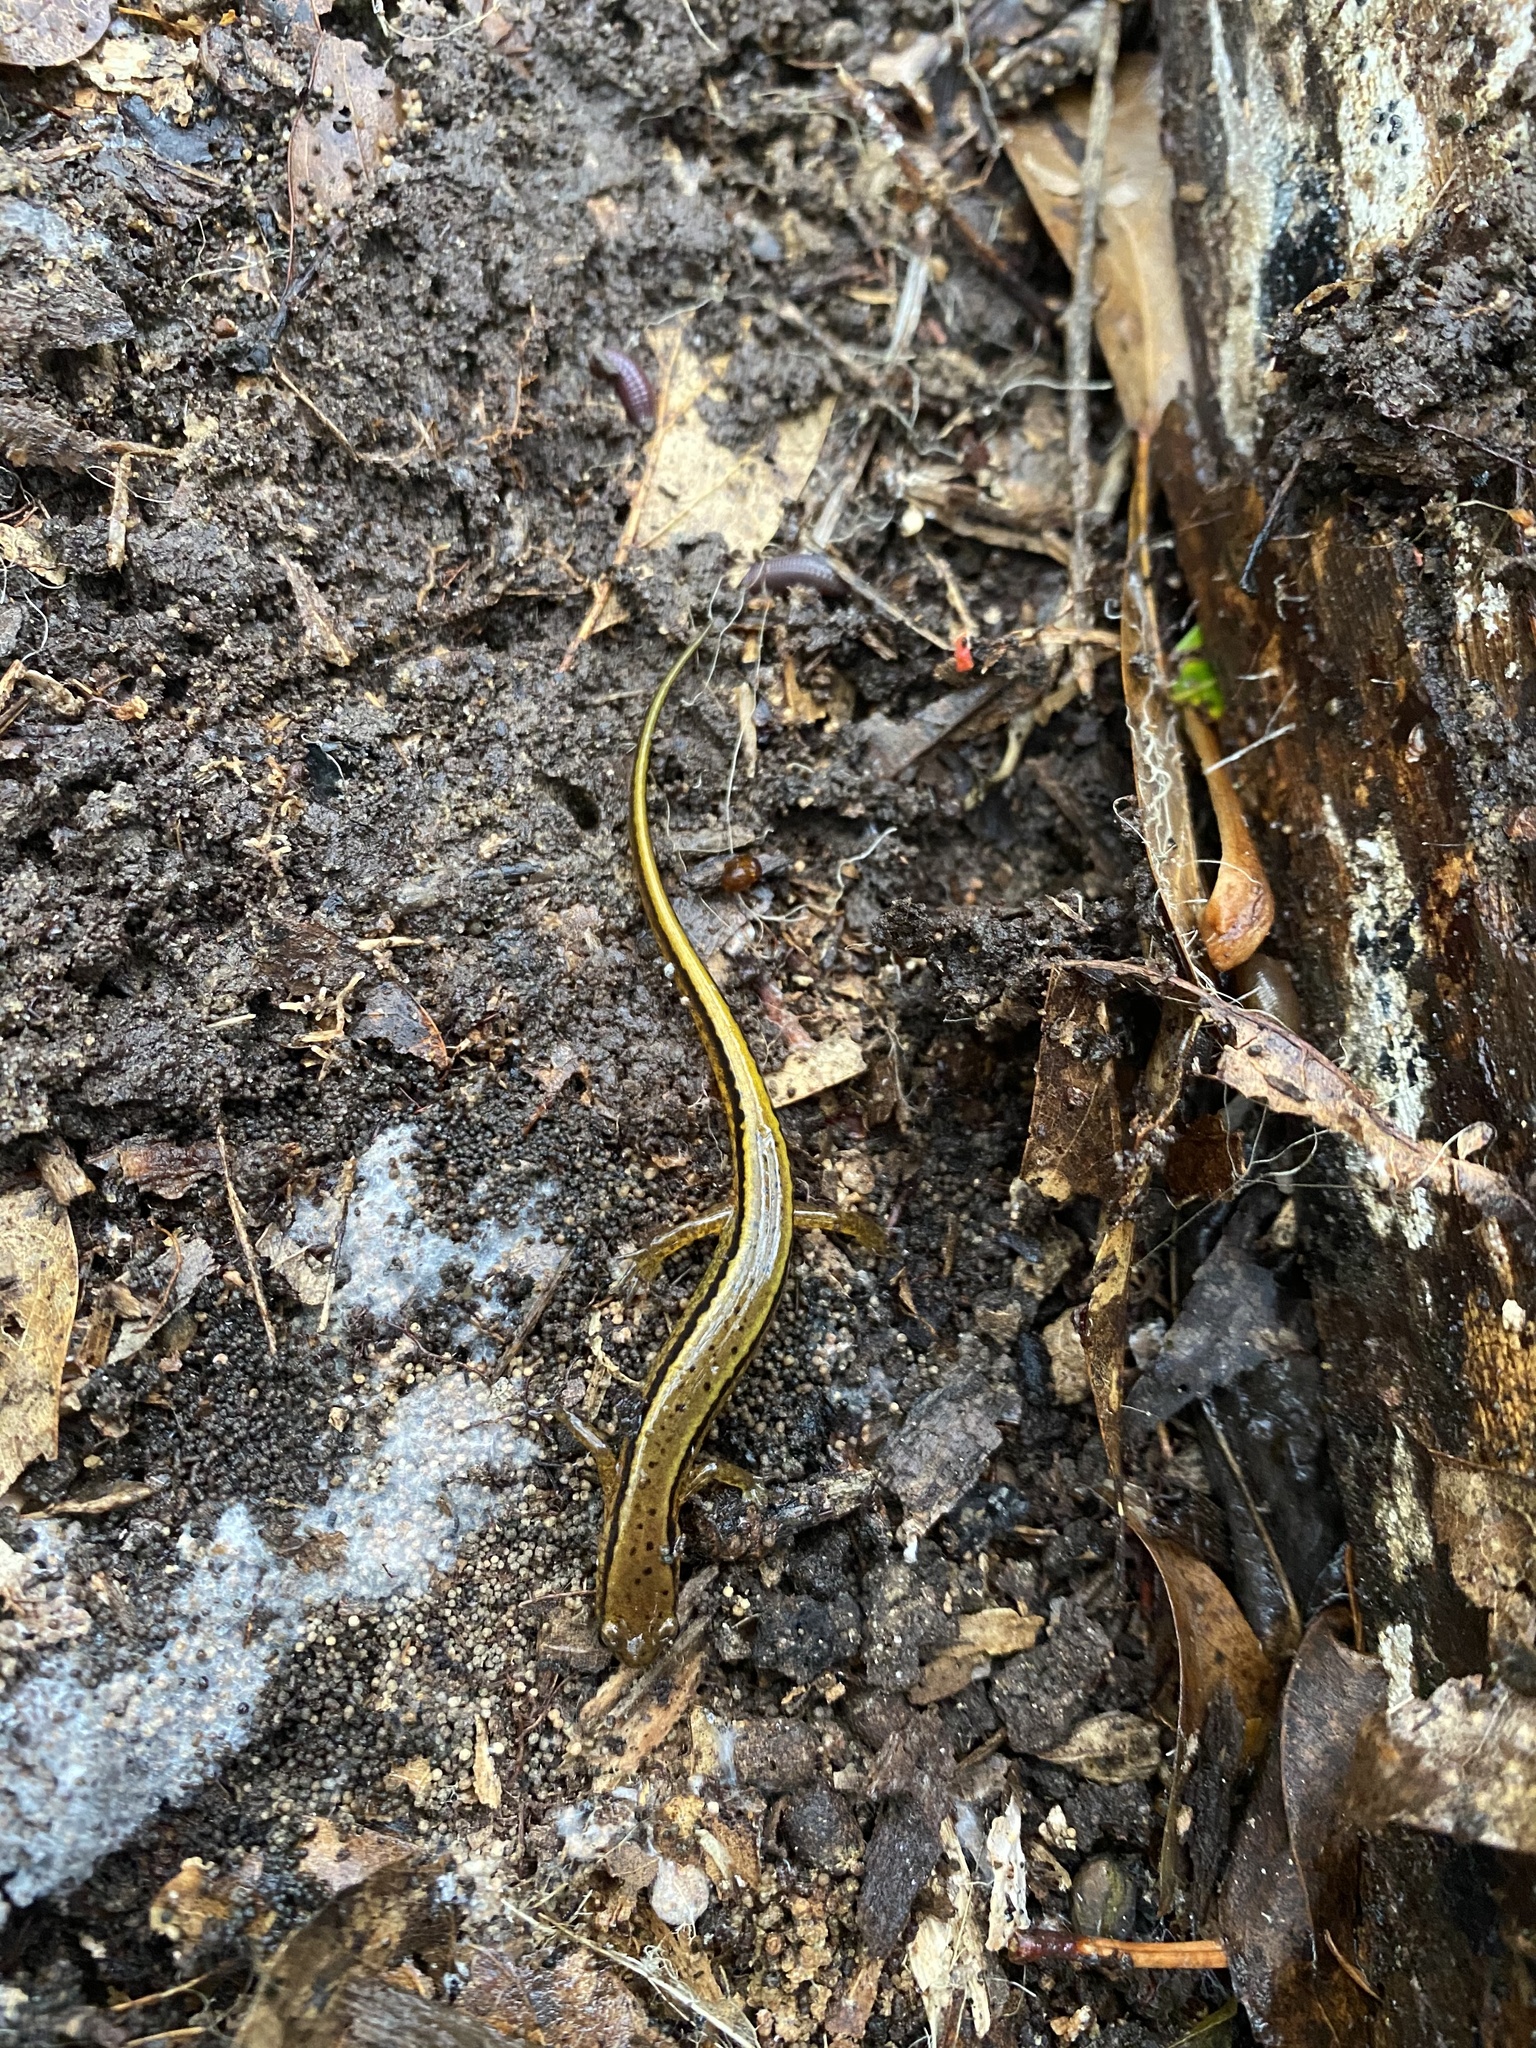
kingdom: Animalia
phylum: Chordata
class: Amphibia
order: Caudata
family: Plethodontidae
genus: Eurycea
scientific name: Eurycea cirrigera
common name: Southern two-lined salamander
